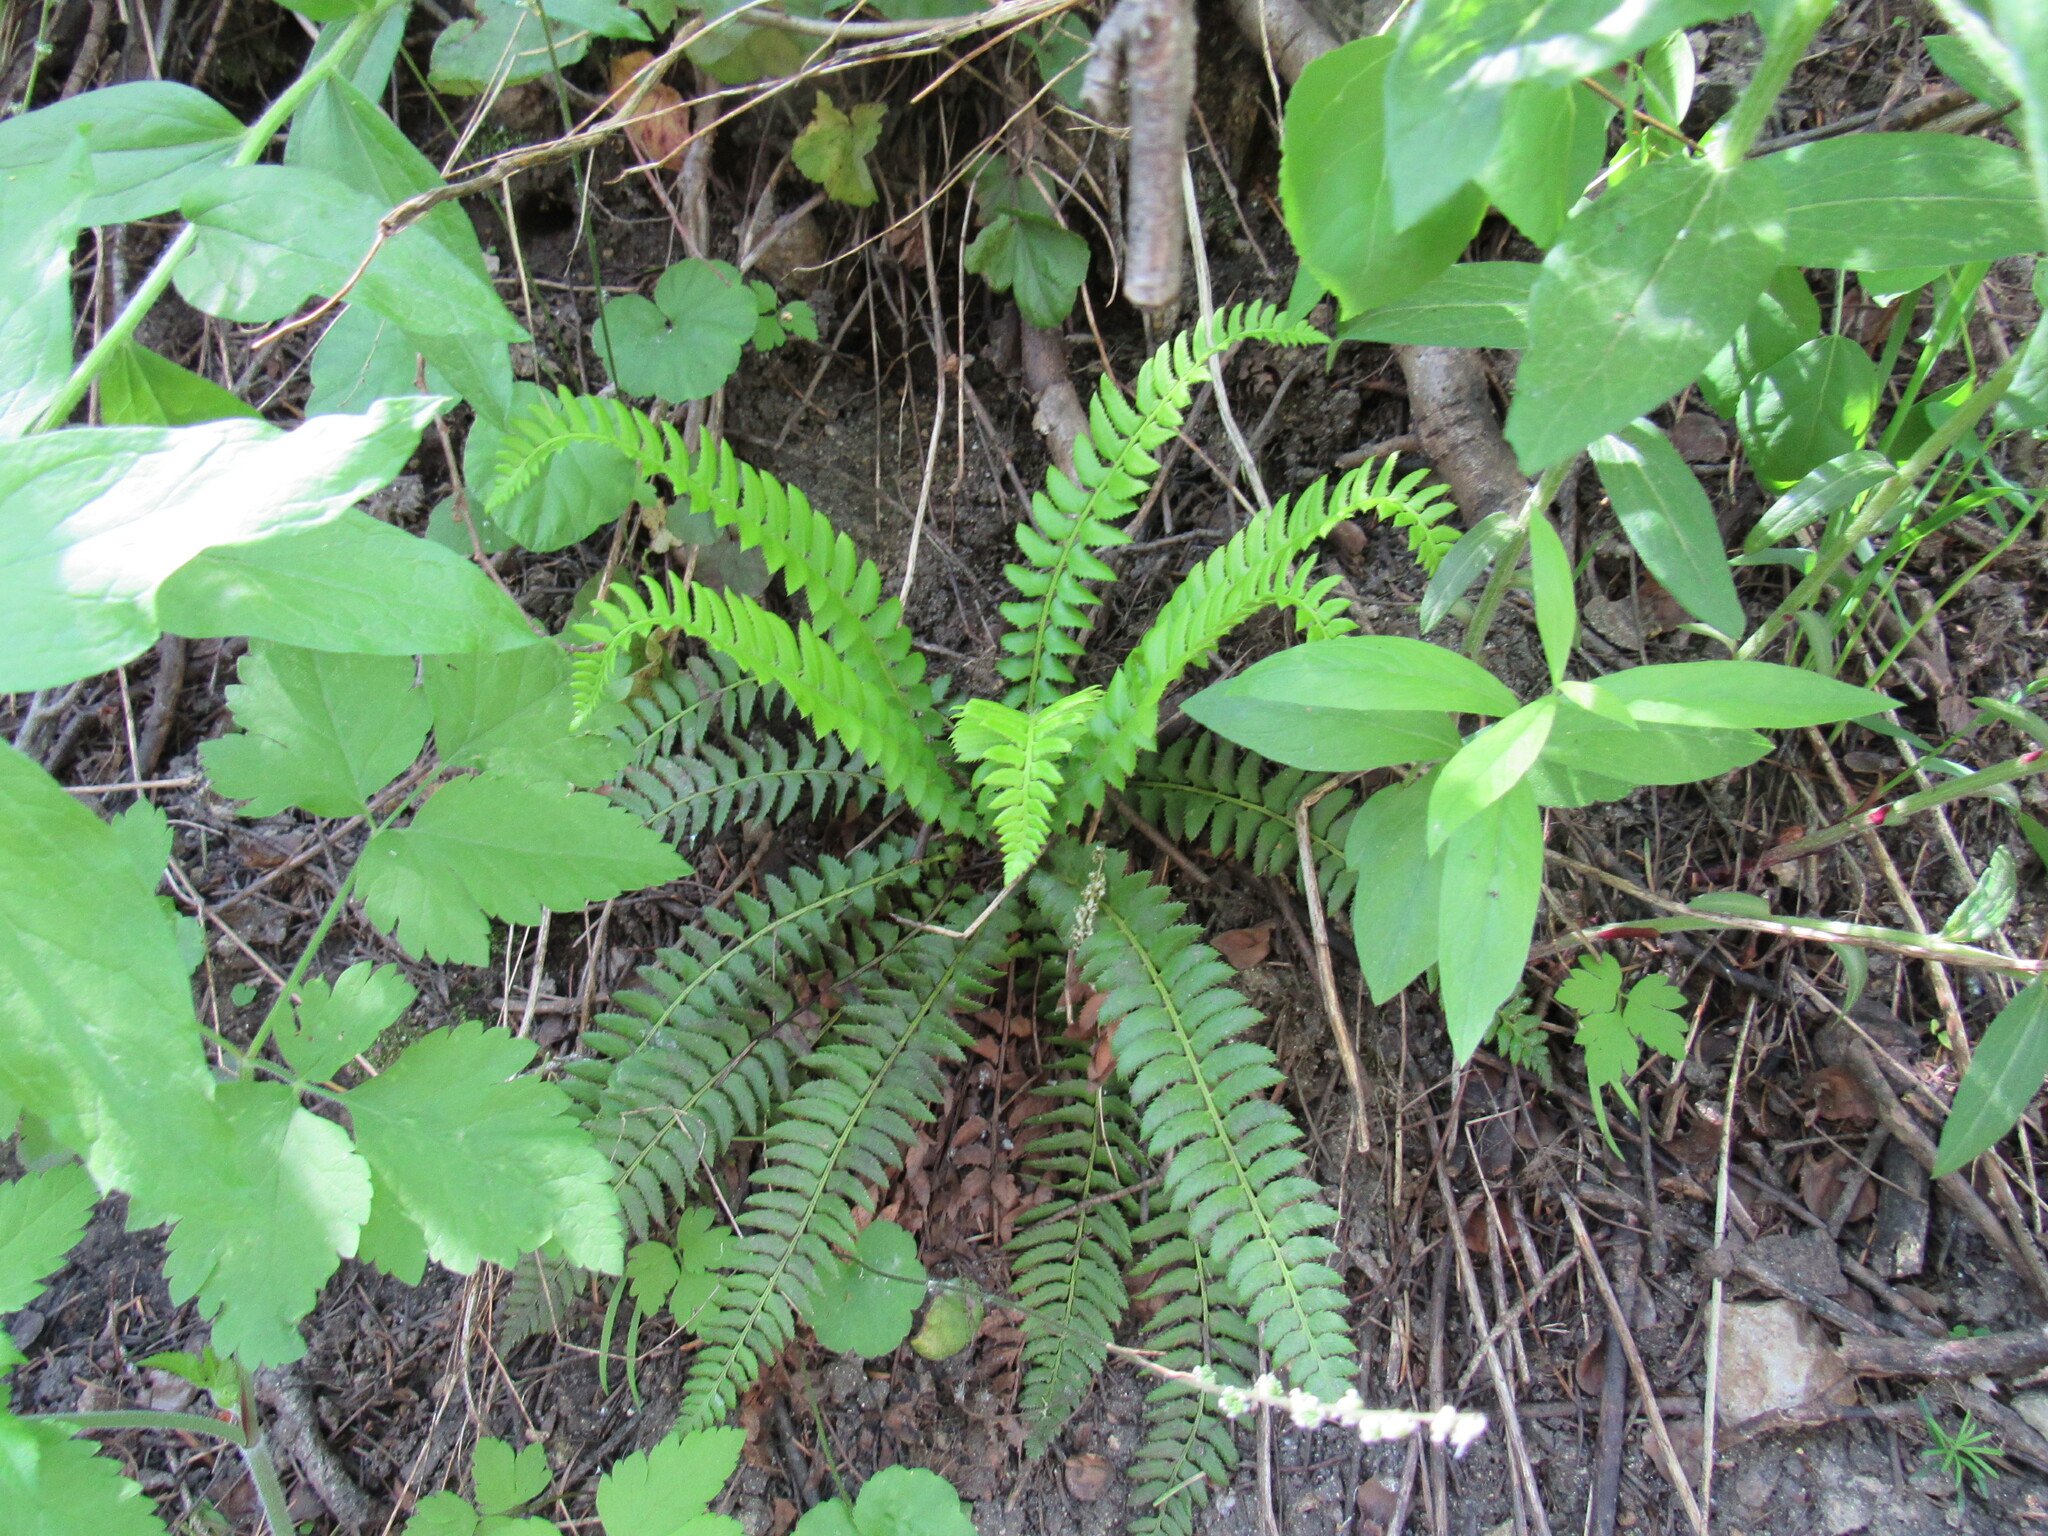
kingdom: Plantae
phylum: Tracheophyta
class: Polypodiopsida
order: Polypodiales
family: Dryopteridaceae
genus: Polystichum
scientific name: Polystichum lonchitis
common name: Holly fern
